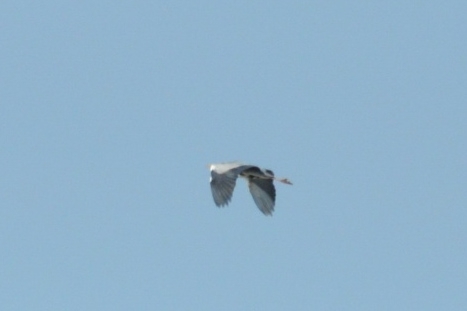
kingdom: Animalia
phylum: Chordata
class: Aves
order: Pelecaniformes
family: Ardeidae
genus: Ardea
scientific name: Ardea cinerea
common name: Grey heron
